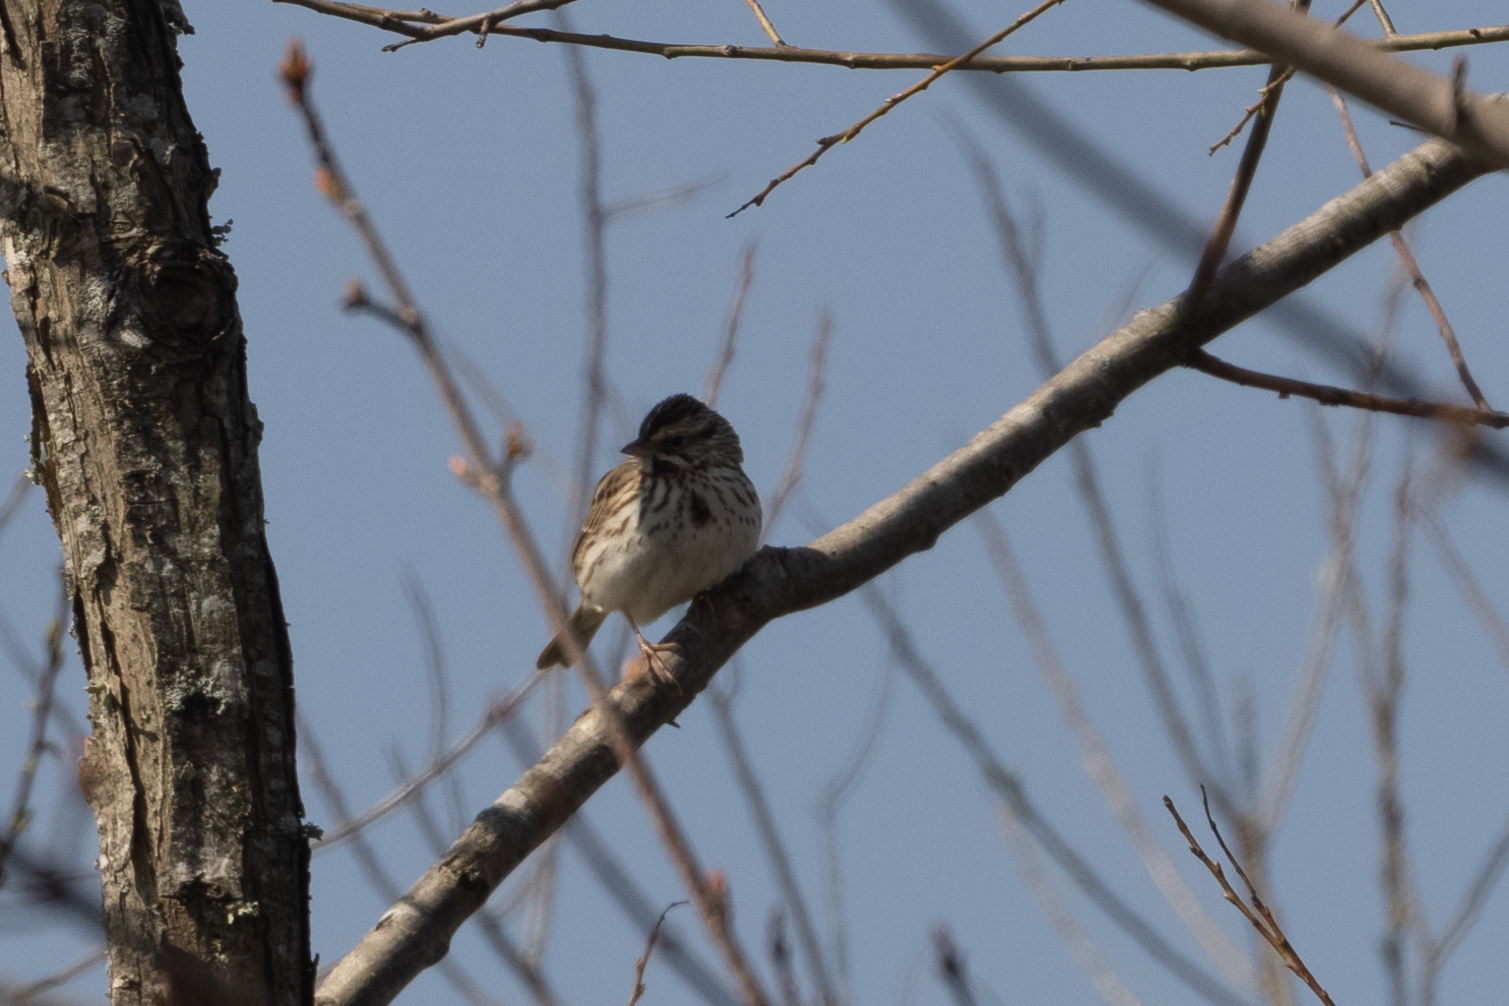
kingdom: Animalia
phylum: Chordata
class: Aves
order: Passeriformes
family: Passerellidae
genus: Passerculus
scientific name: Passerculus sandwichensis
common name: Savannah sparrow
